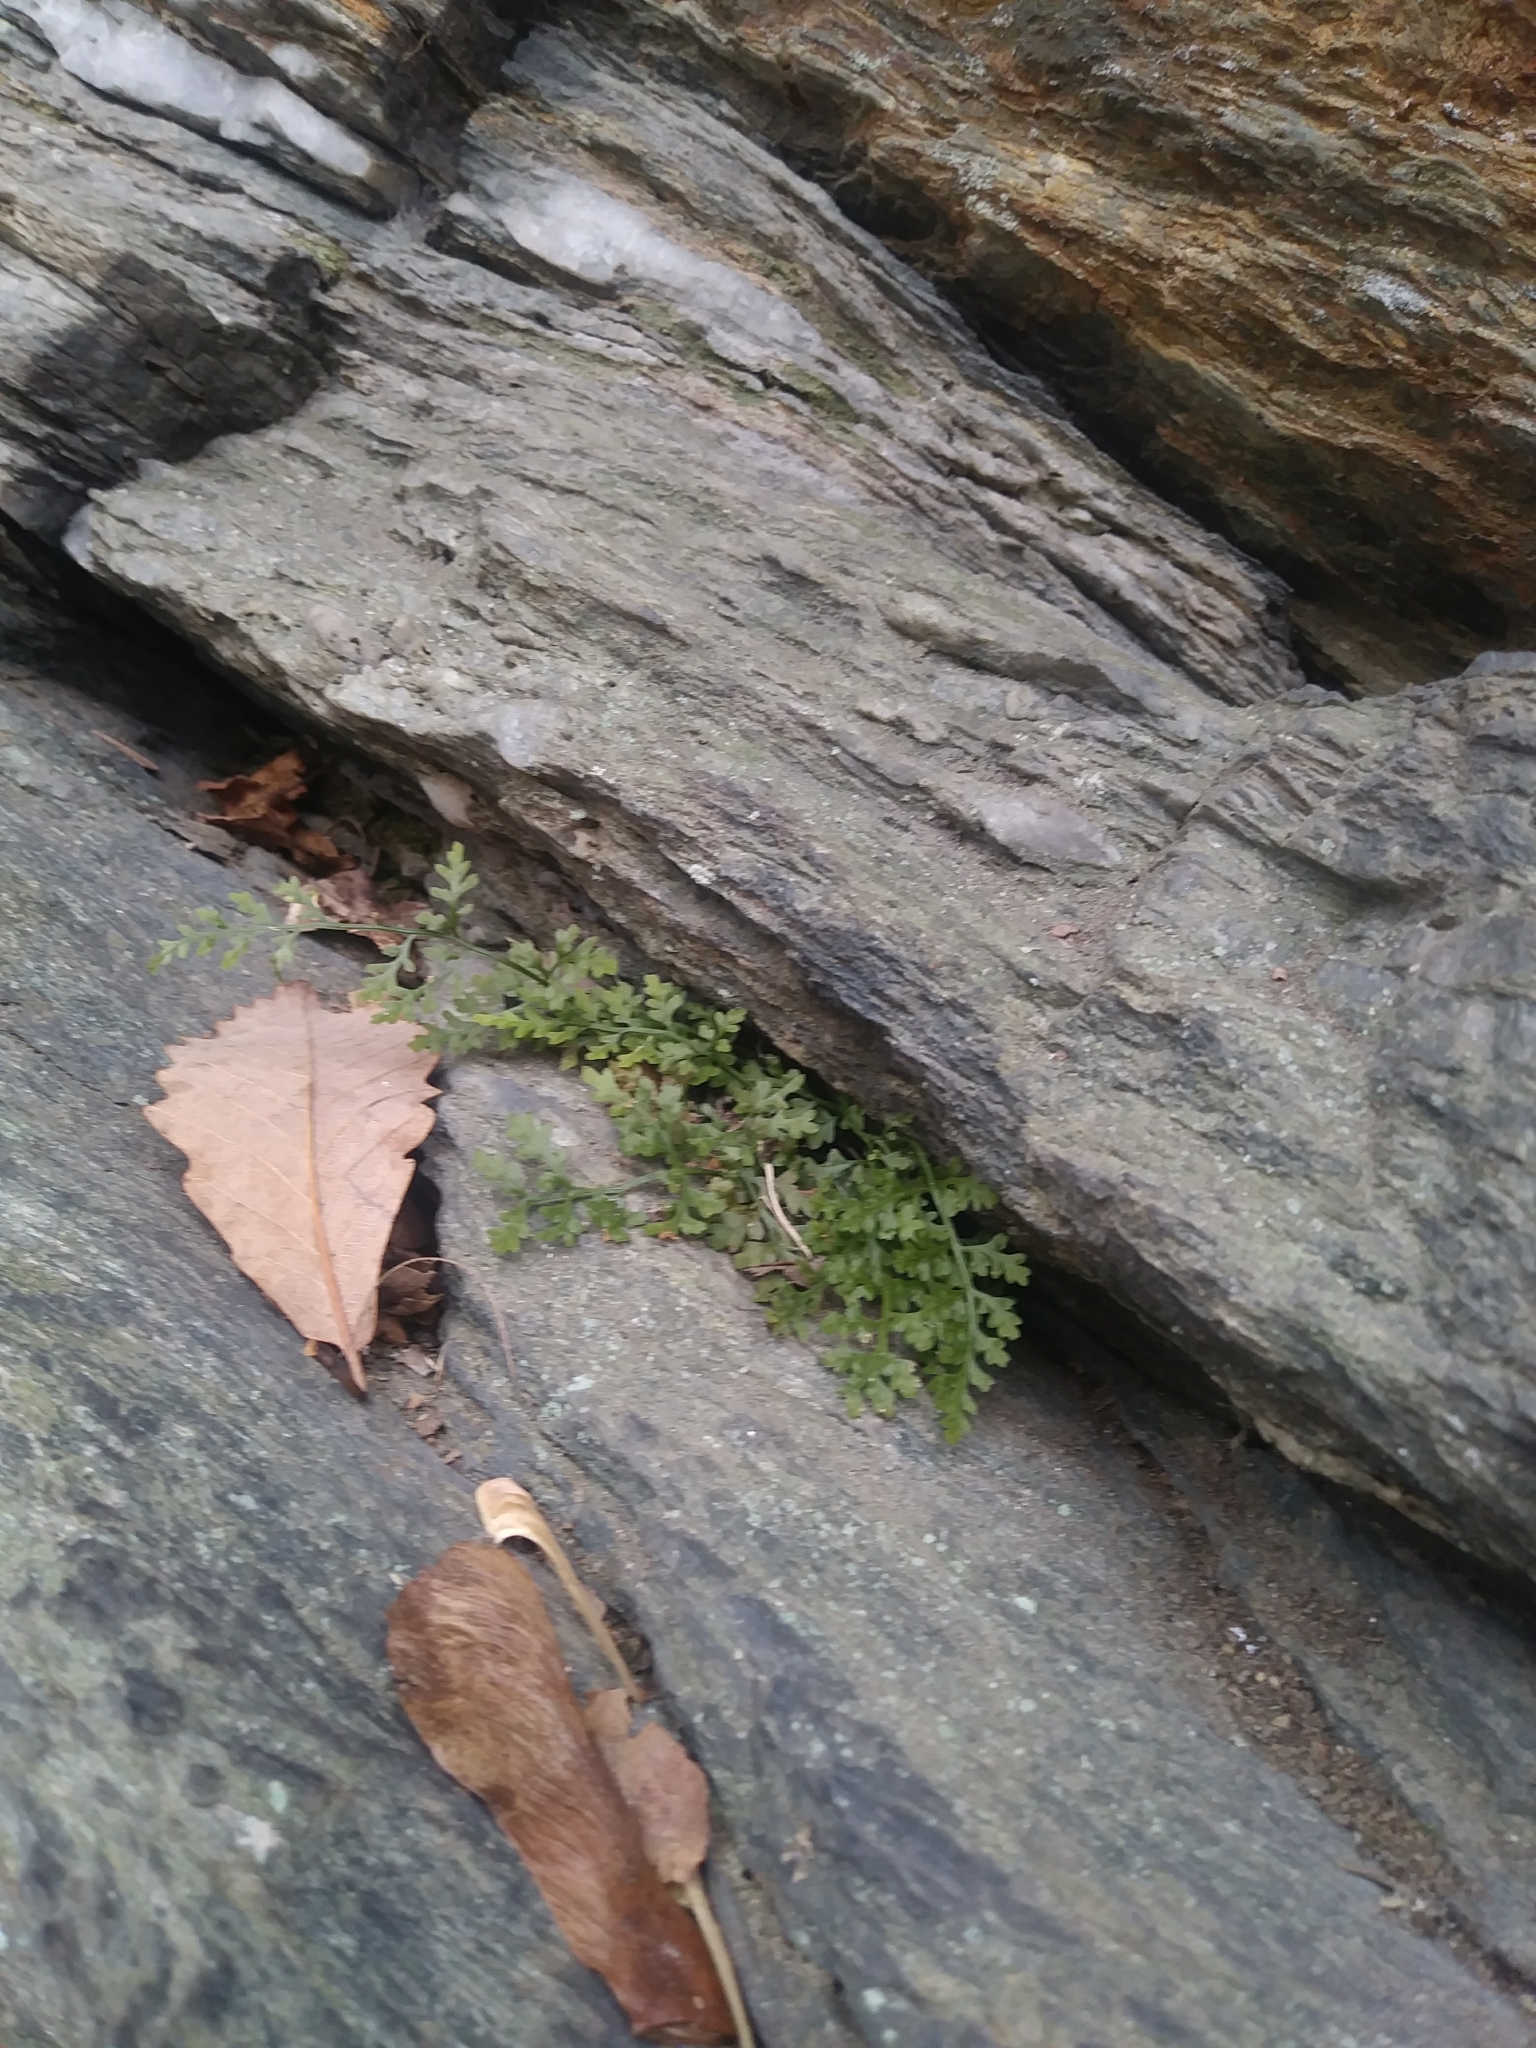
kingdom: Plantae
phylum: Tracheophyta
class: Polypodiopsida
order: Polypodiales
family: Aspleniaceae
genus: Asplenium
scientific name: Asplenium montanum
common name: Mountain spleenwort
